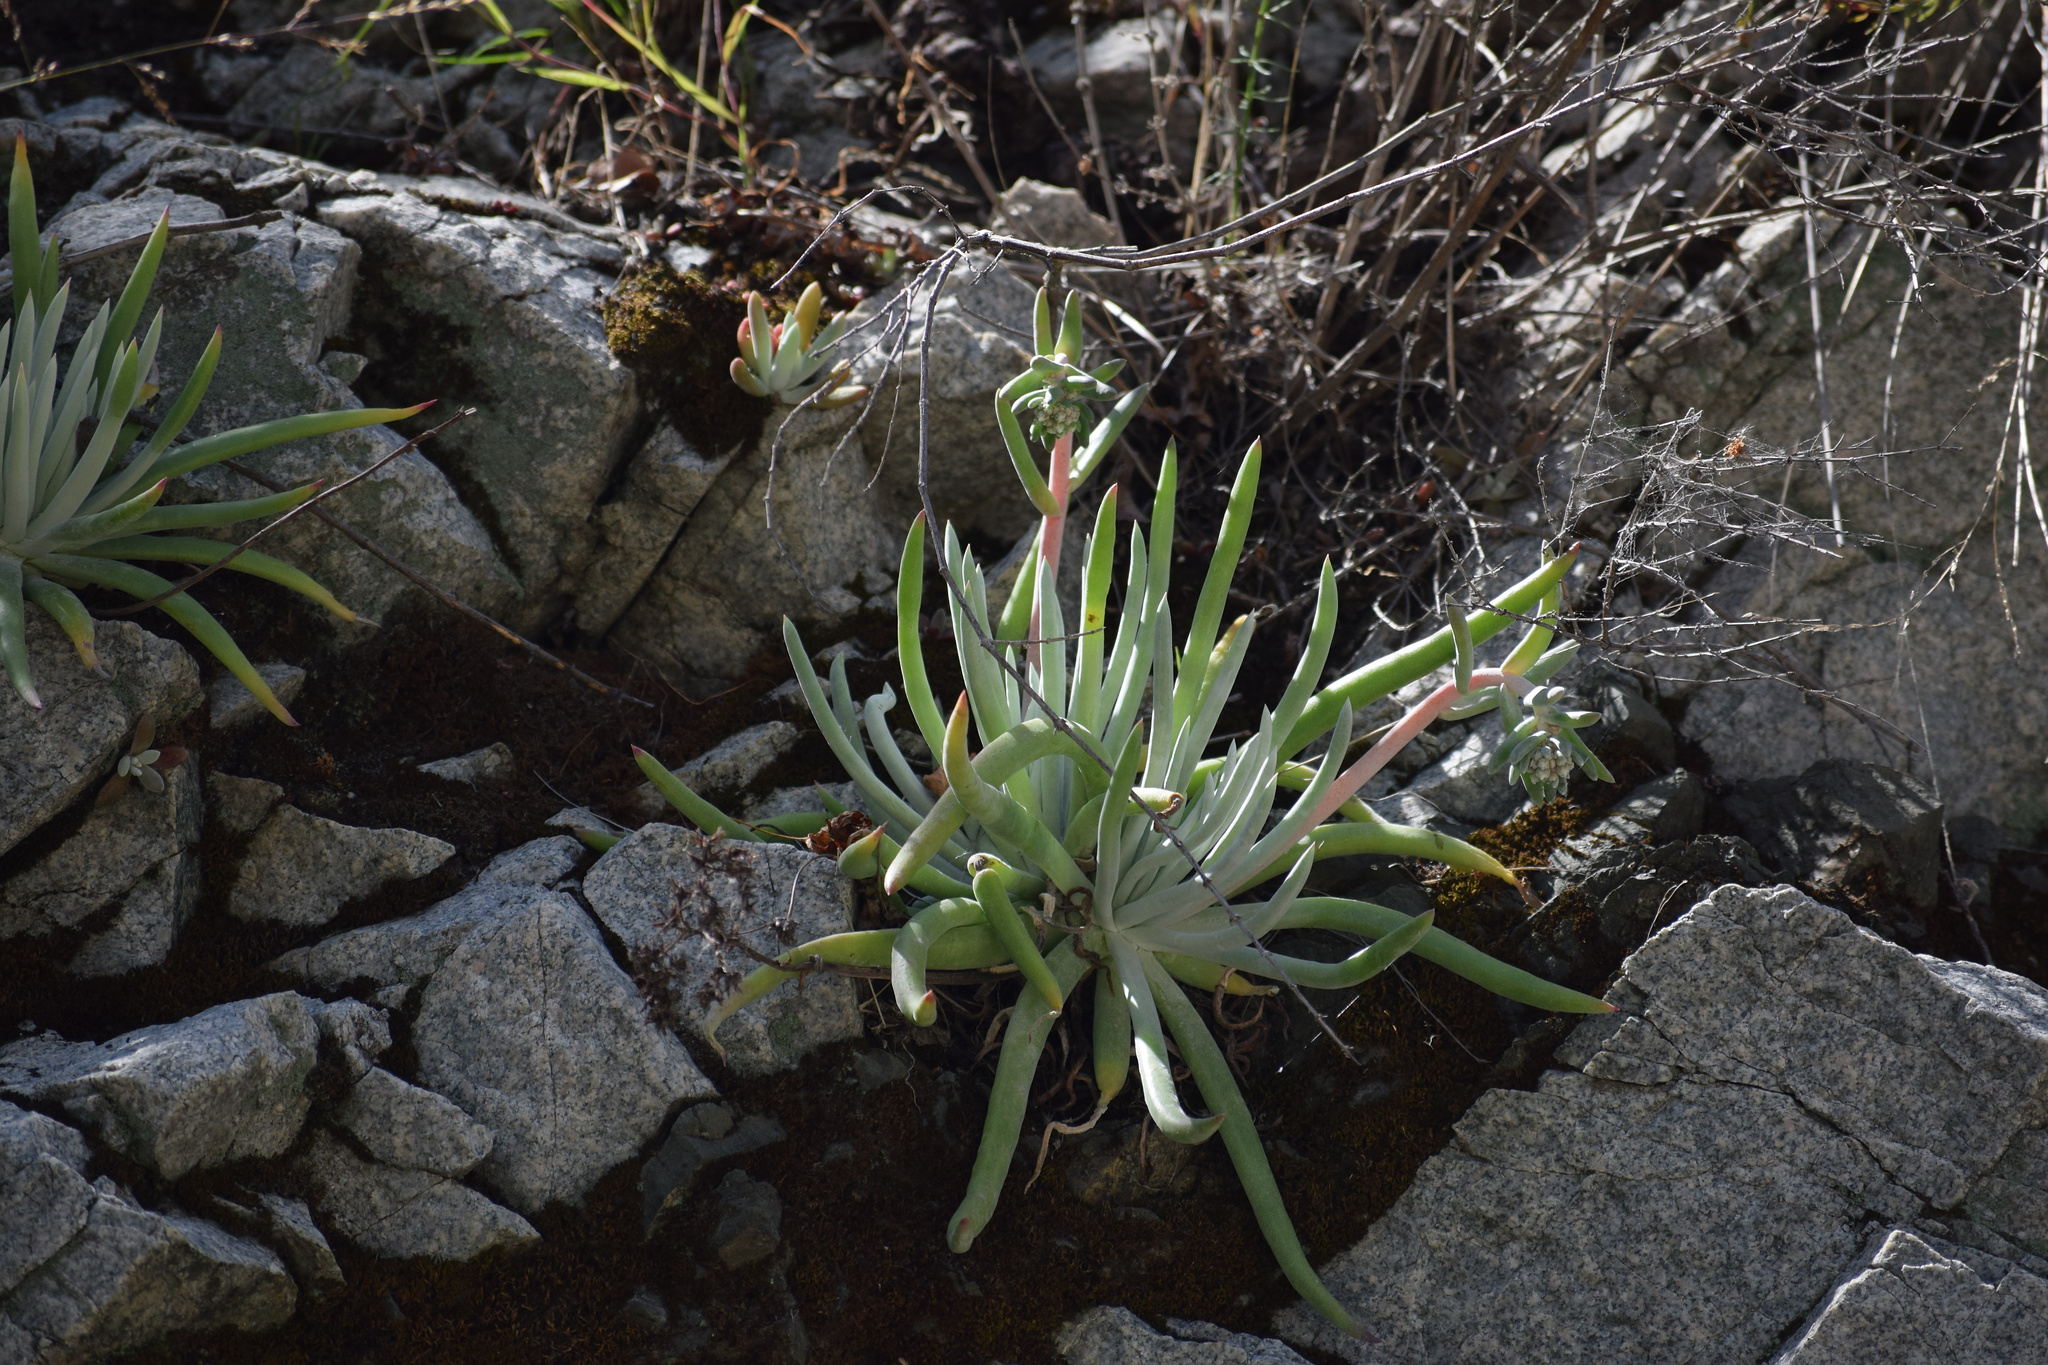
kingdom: Plantae
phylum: Tracheophyta
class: Magnoliopsida
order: Saxifragales
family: Crassulaceae
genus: Dudleya
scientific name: Dudleya densiflora
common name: San gabriel mountains dudleya
